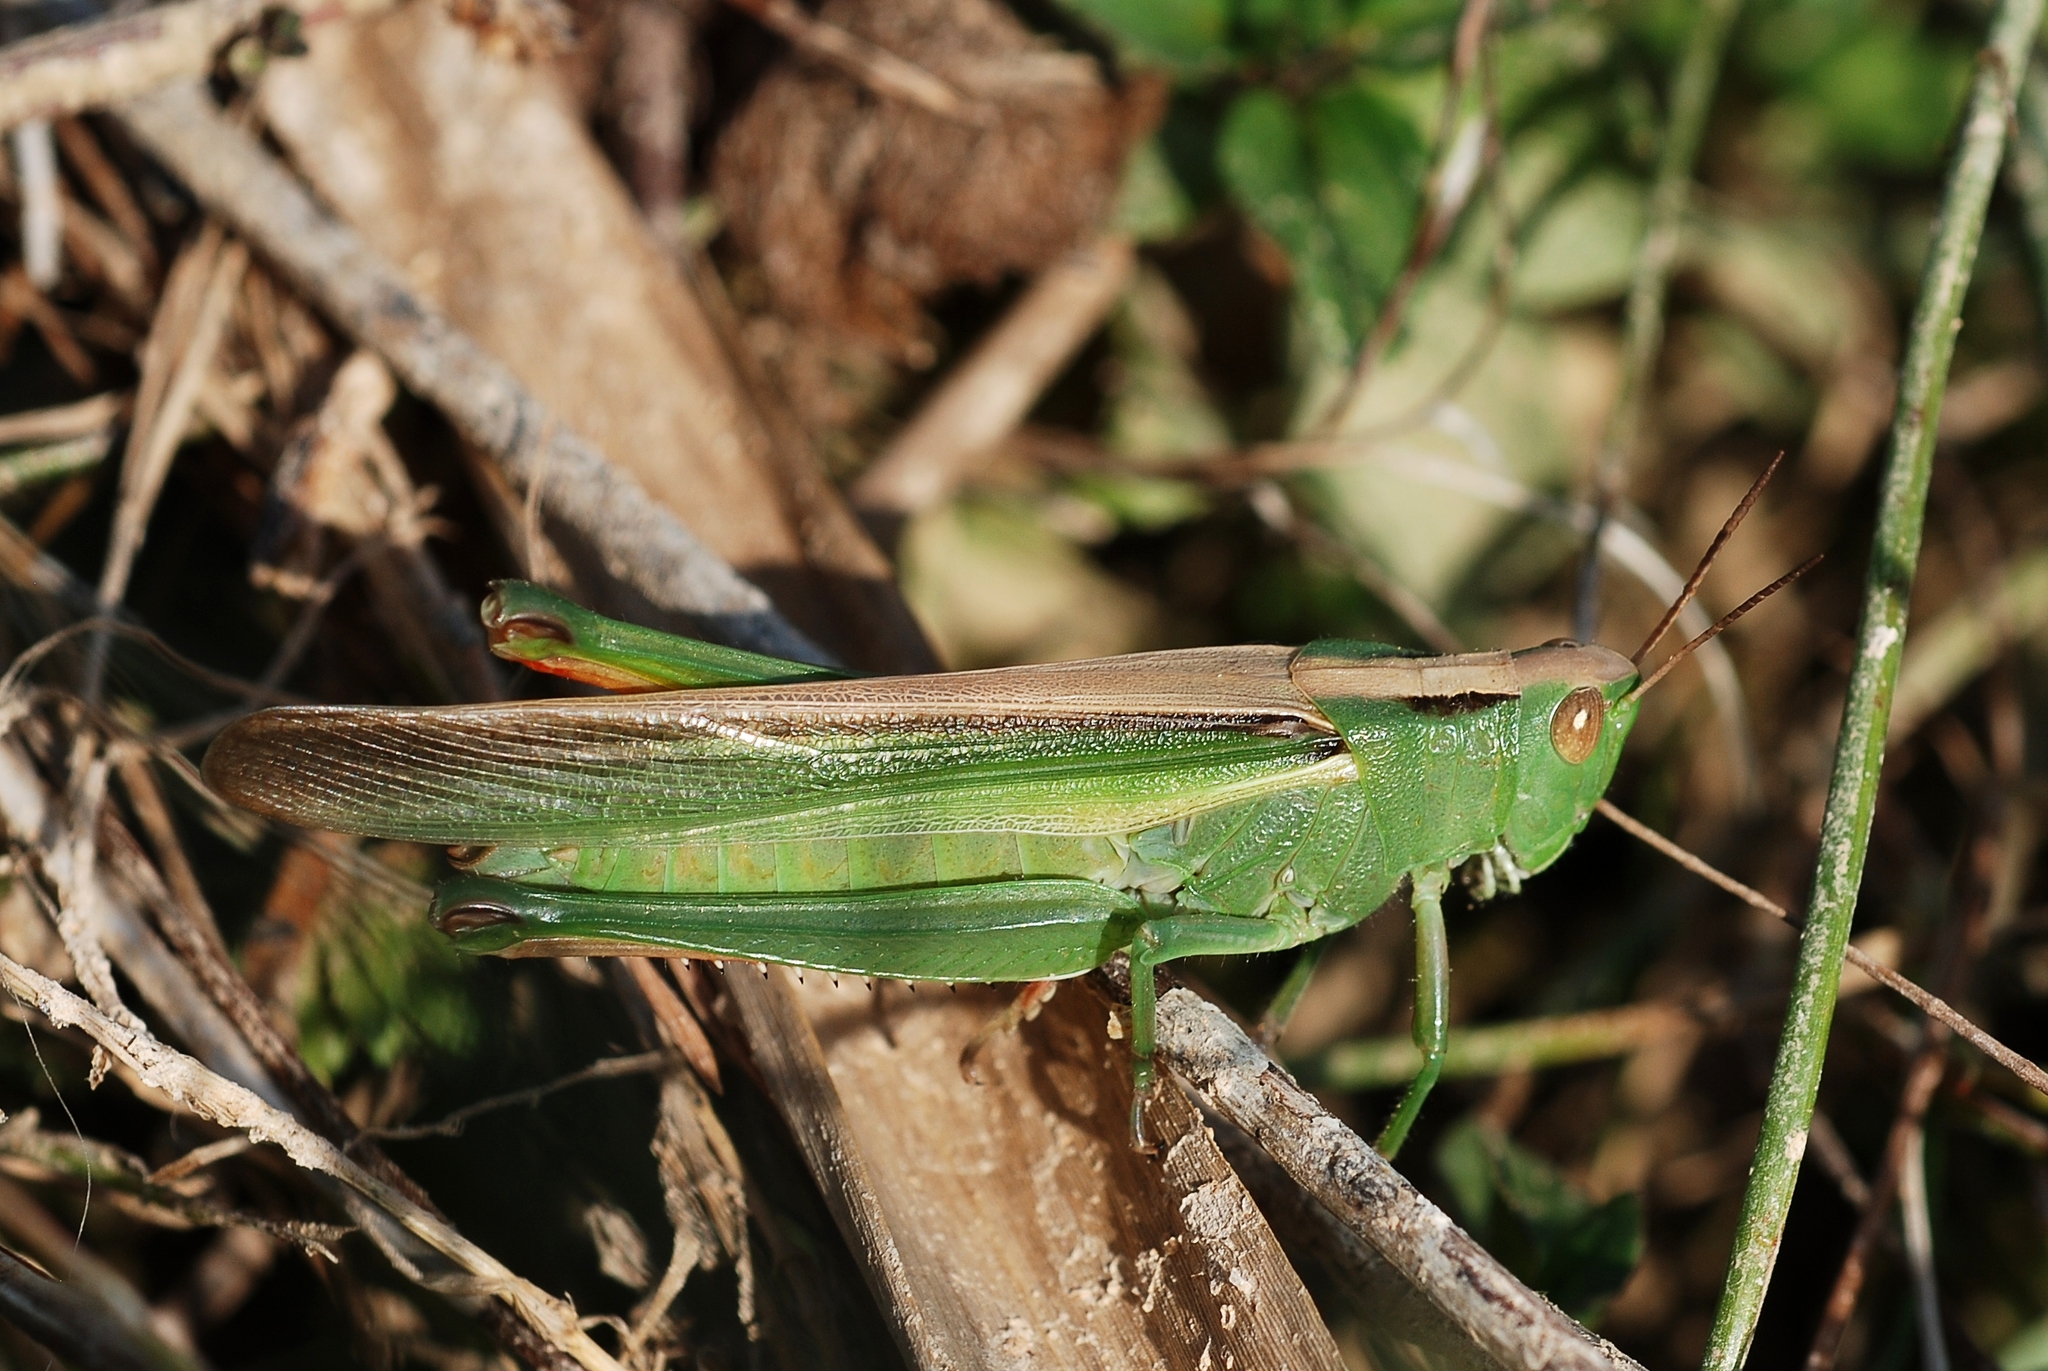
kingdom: Animalia
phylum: Arthropoda
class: Insecta
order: Orthoptera
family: Acrididae
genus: Paracinema
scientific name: Paracinema tricolor
